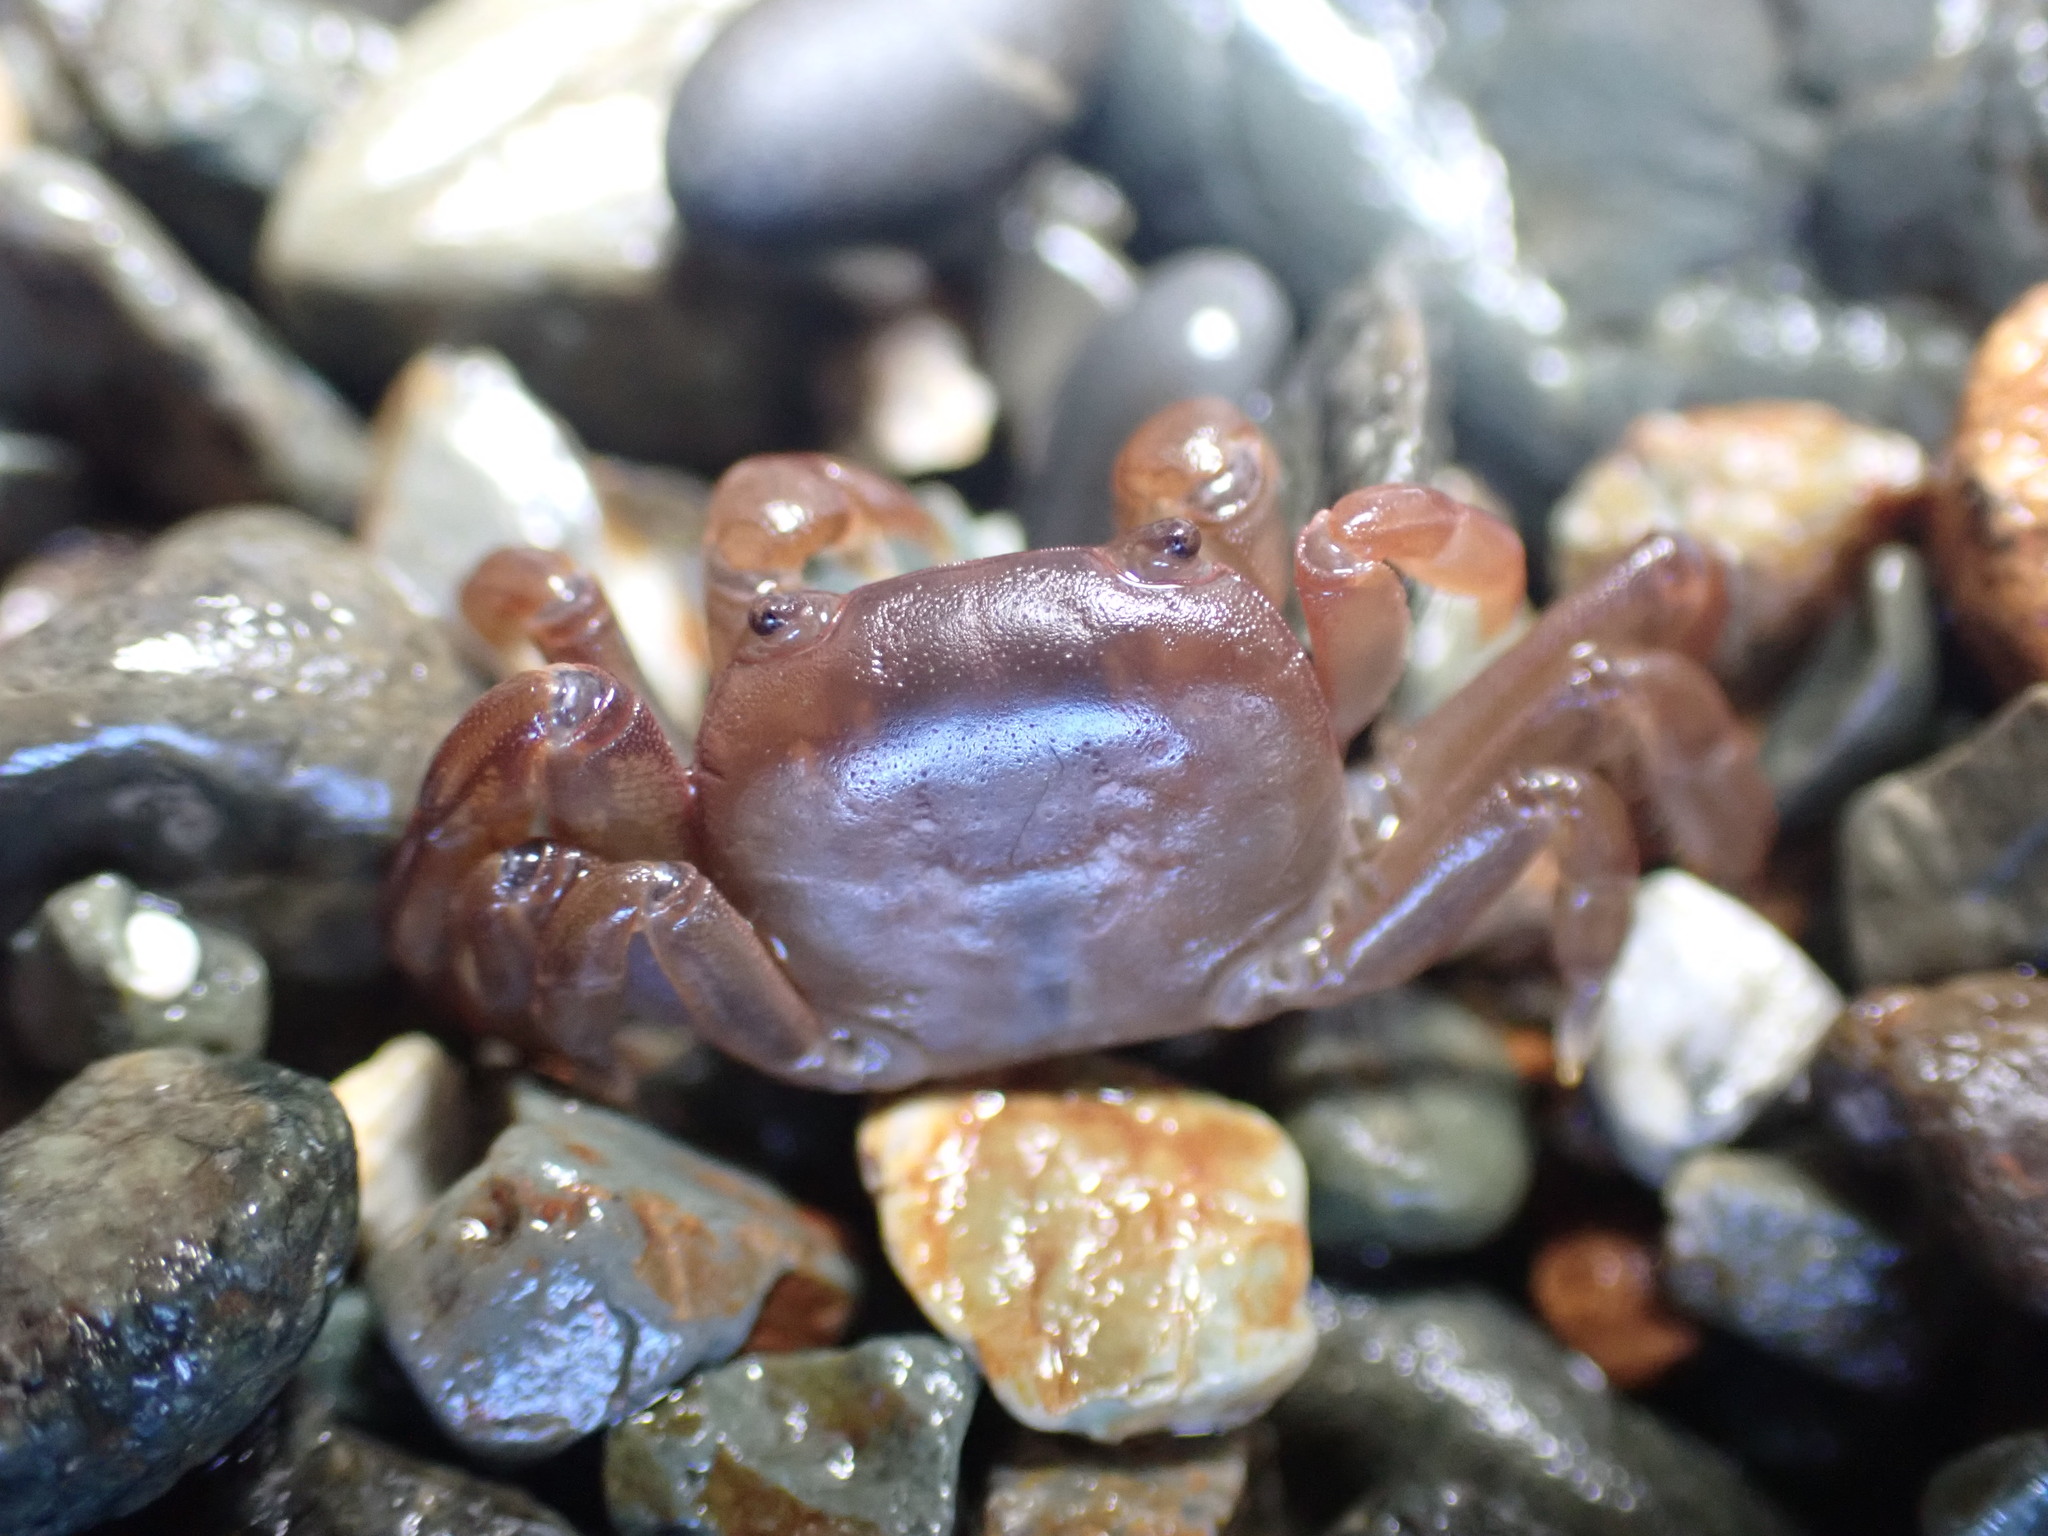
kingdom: Animalia
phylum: Arthropoda
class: Malacostraca
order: Decapoda
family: Varunidae
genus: Cyclograpsus
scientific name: Cyclograpsus insularum
